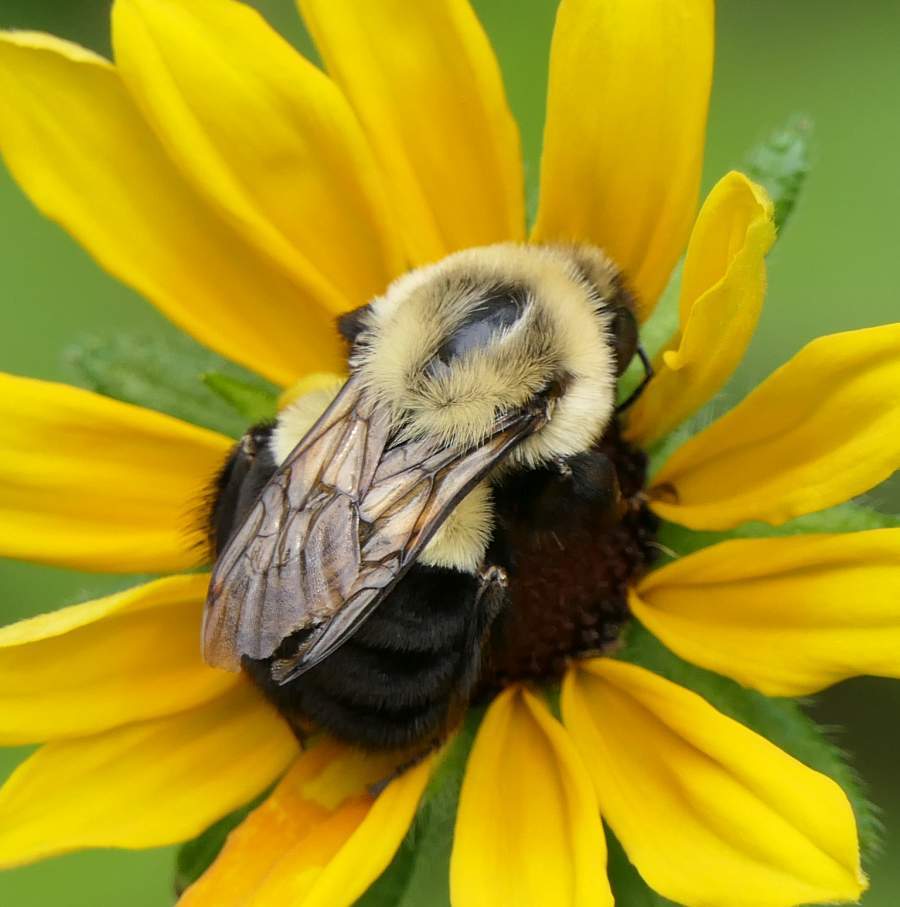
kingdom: Animalia
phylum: Arthropoda
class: Insecta
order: Hymenoptera
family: Apidae
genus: Bombus
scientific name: Bombus impatiens
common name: Common eastern bumble bee
